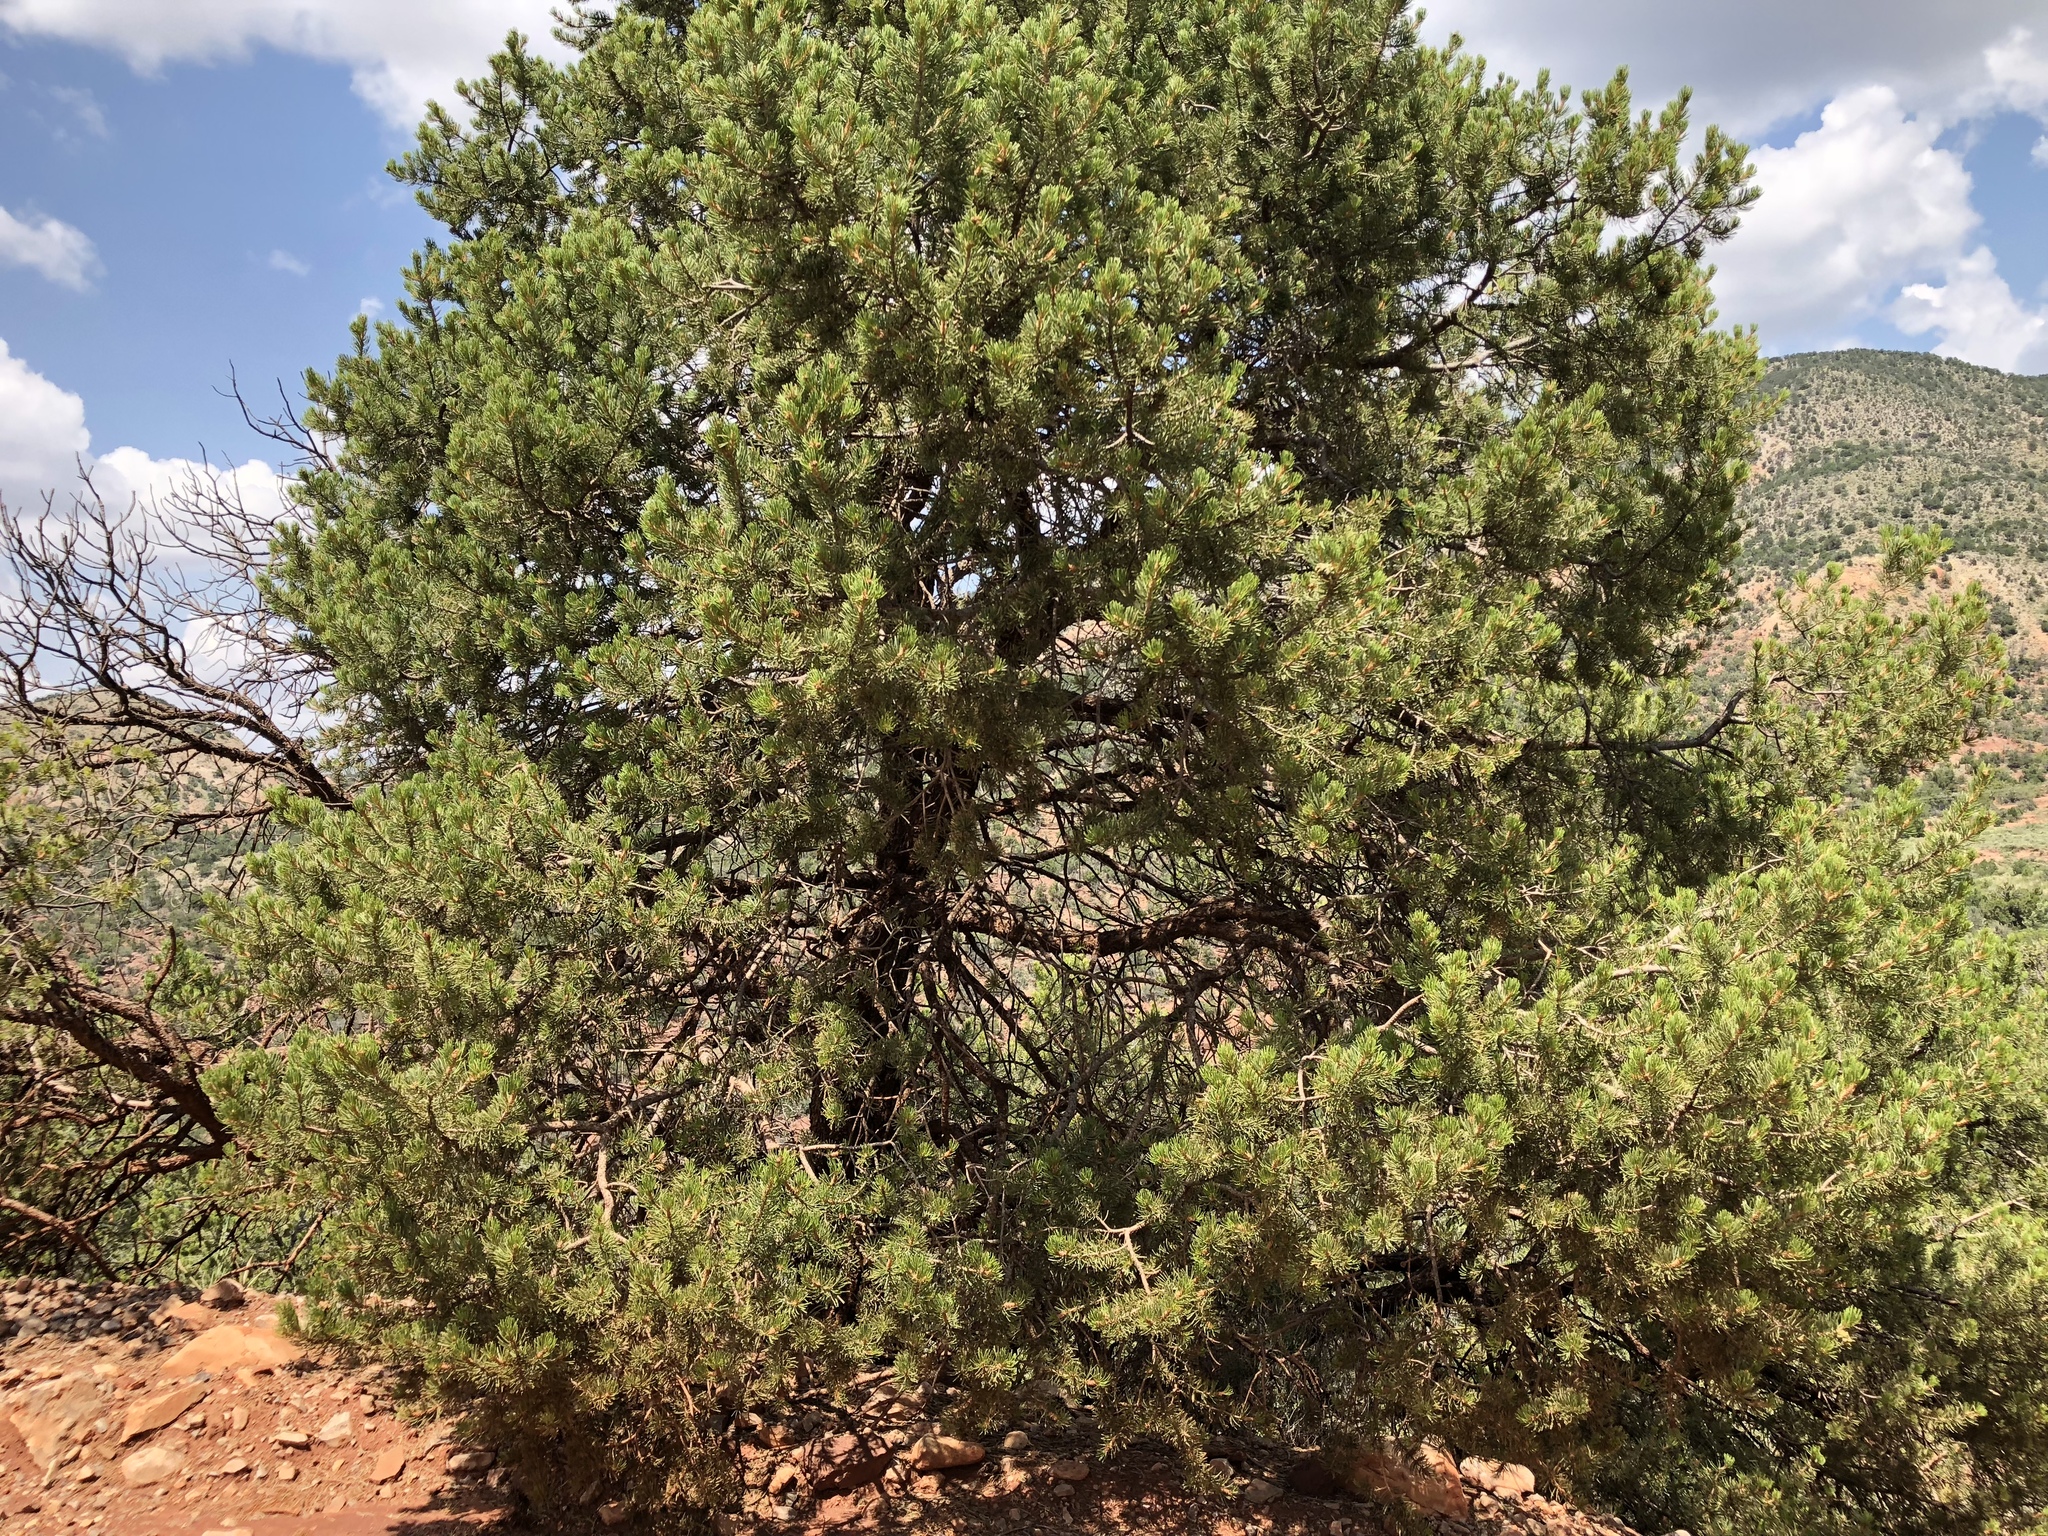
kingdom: Plantae
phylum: Tracheophyta
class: Pinopsida
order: Pinales
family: Pinaceae
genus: Pinus
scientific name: Pinus edulis
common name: Colorado pinyon
